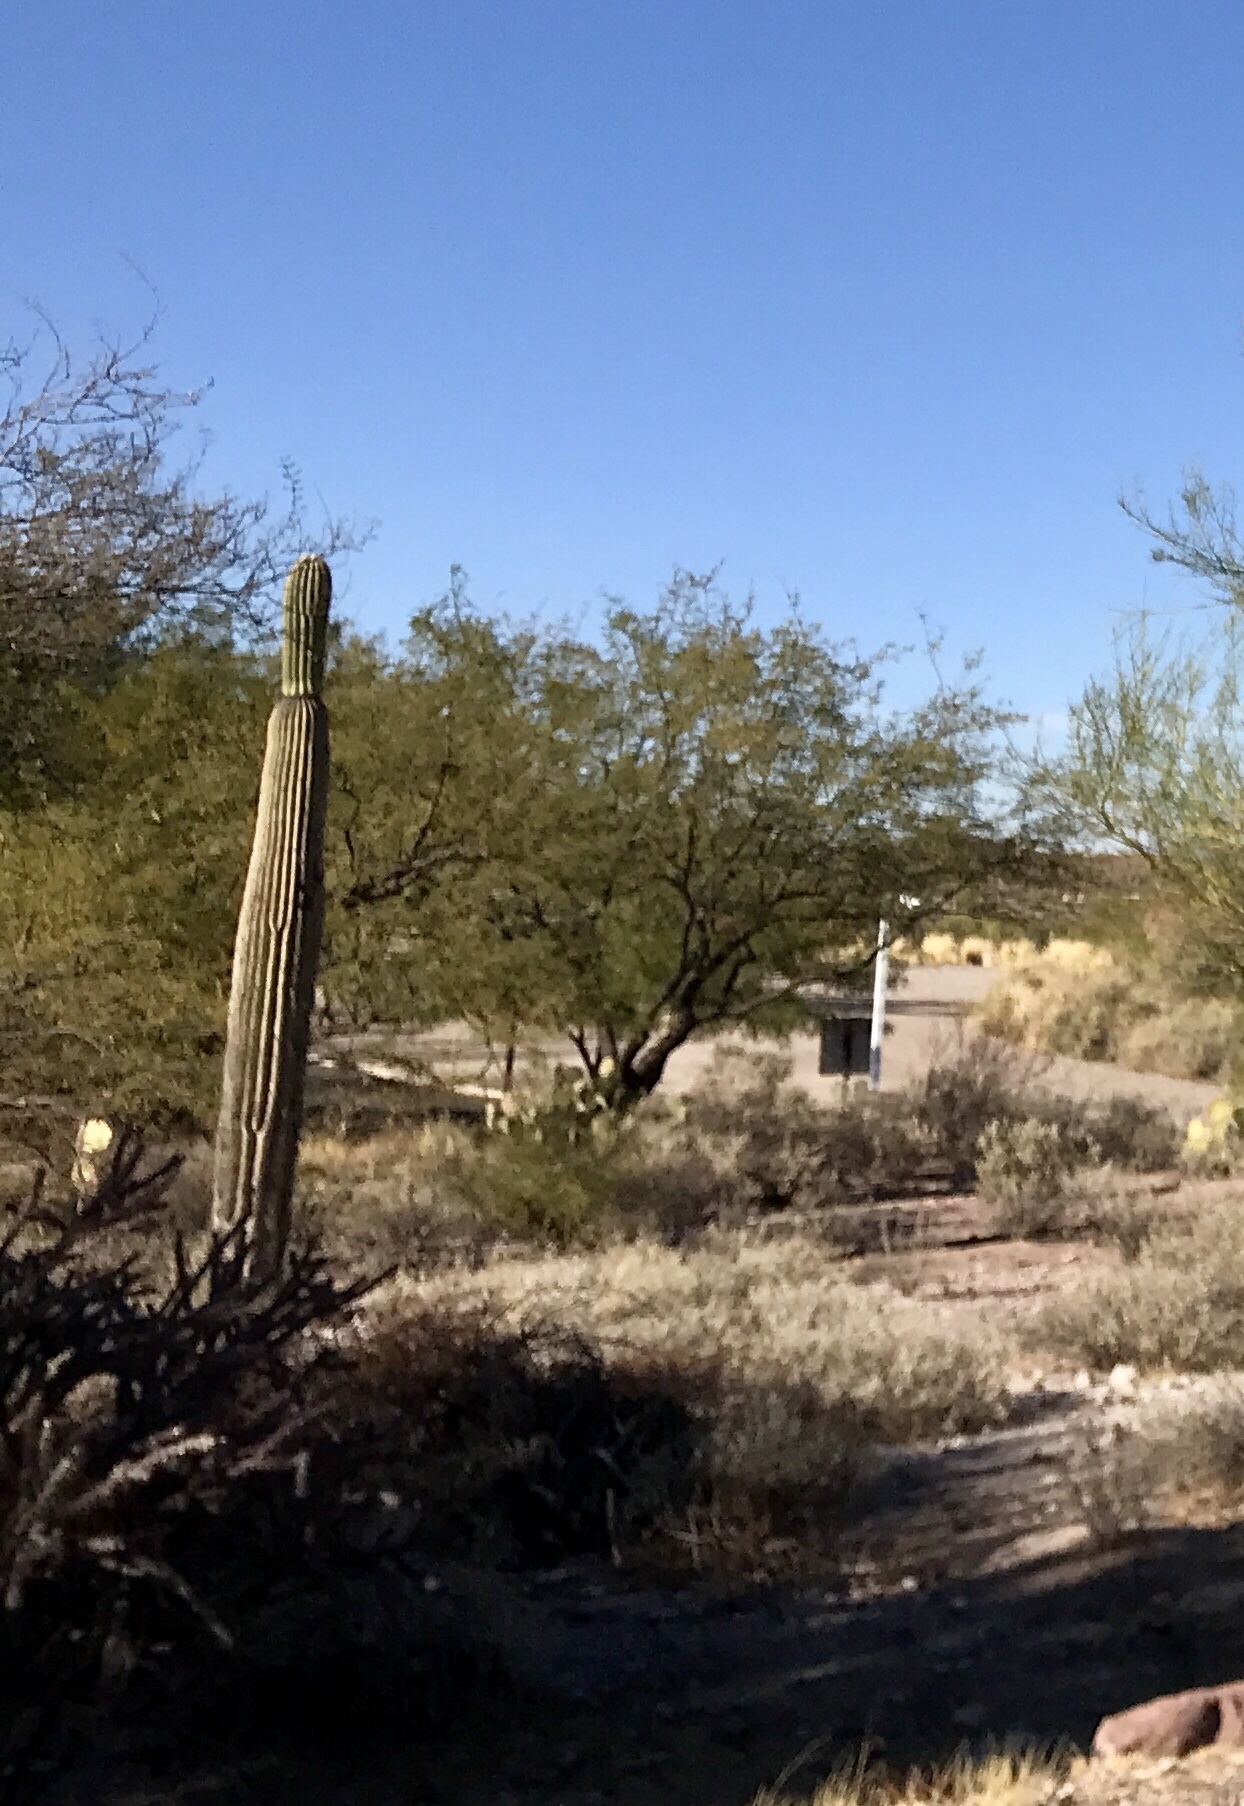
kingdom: Plantae
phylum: Tracheophyta
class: Magnoliopsida
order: Caryophyllales
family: Cactaceae
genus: Carnegiea
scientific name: Carnegiea gigantea
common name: Saguaro
